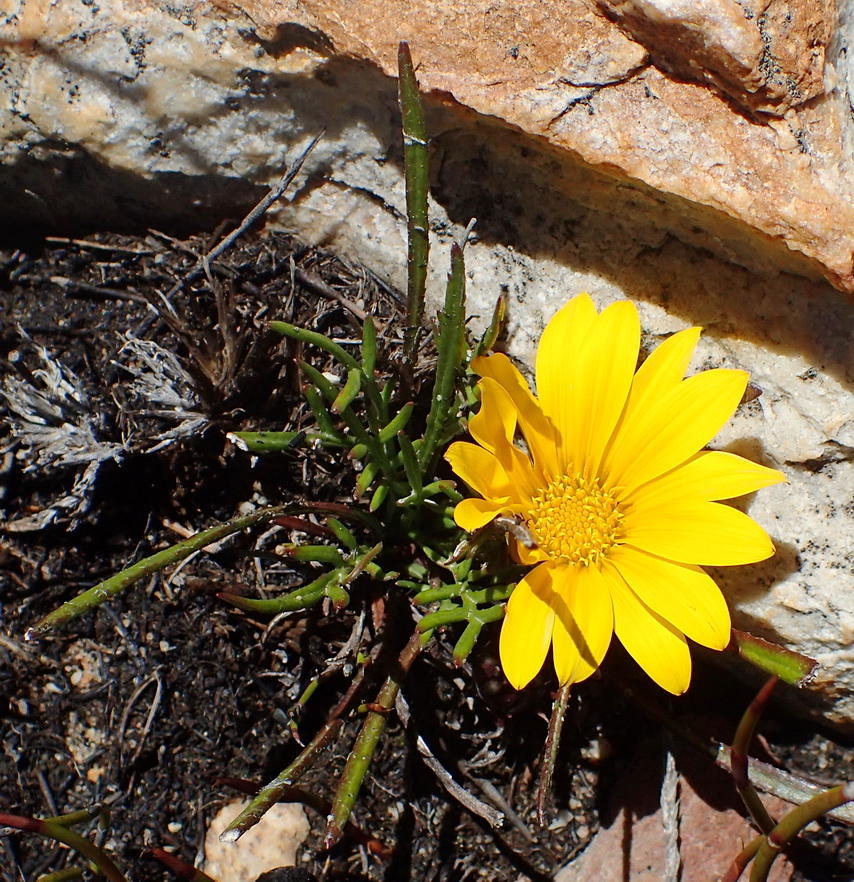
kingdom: Plantae
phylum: Tracheophyta
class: Magnoliopsida
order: Asterales
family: Asteraceae
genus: Gazania
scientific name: Gazania krebsiana
